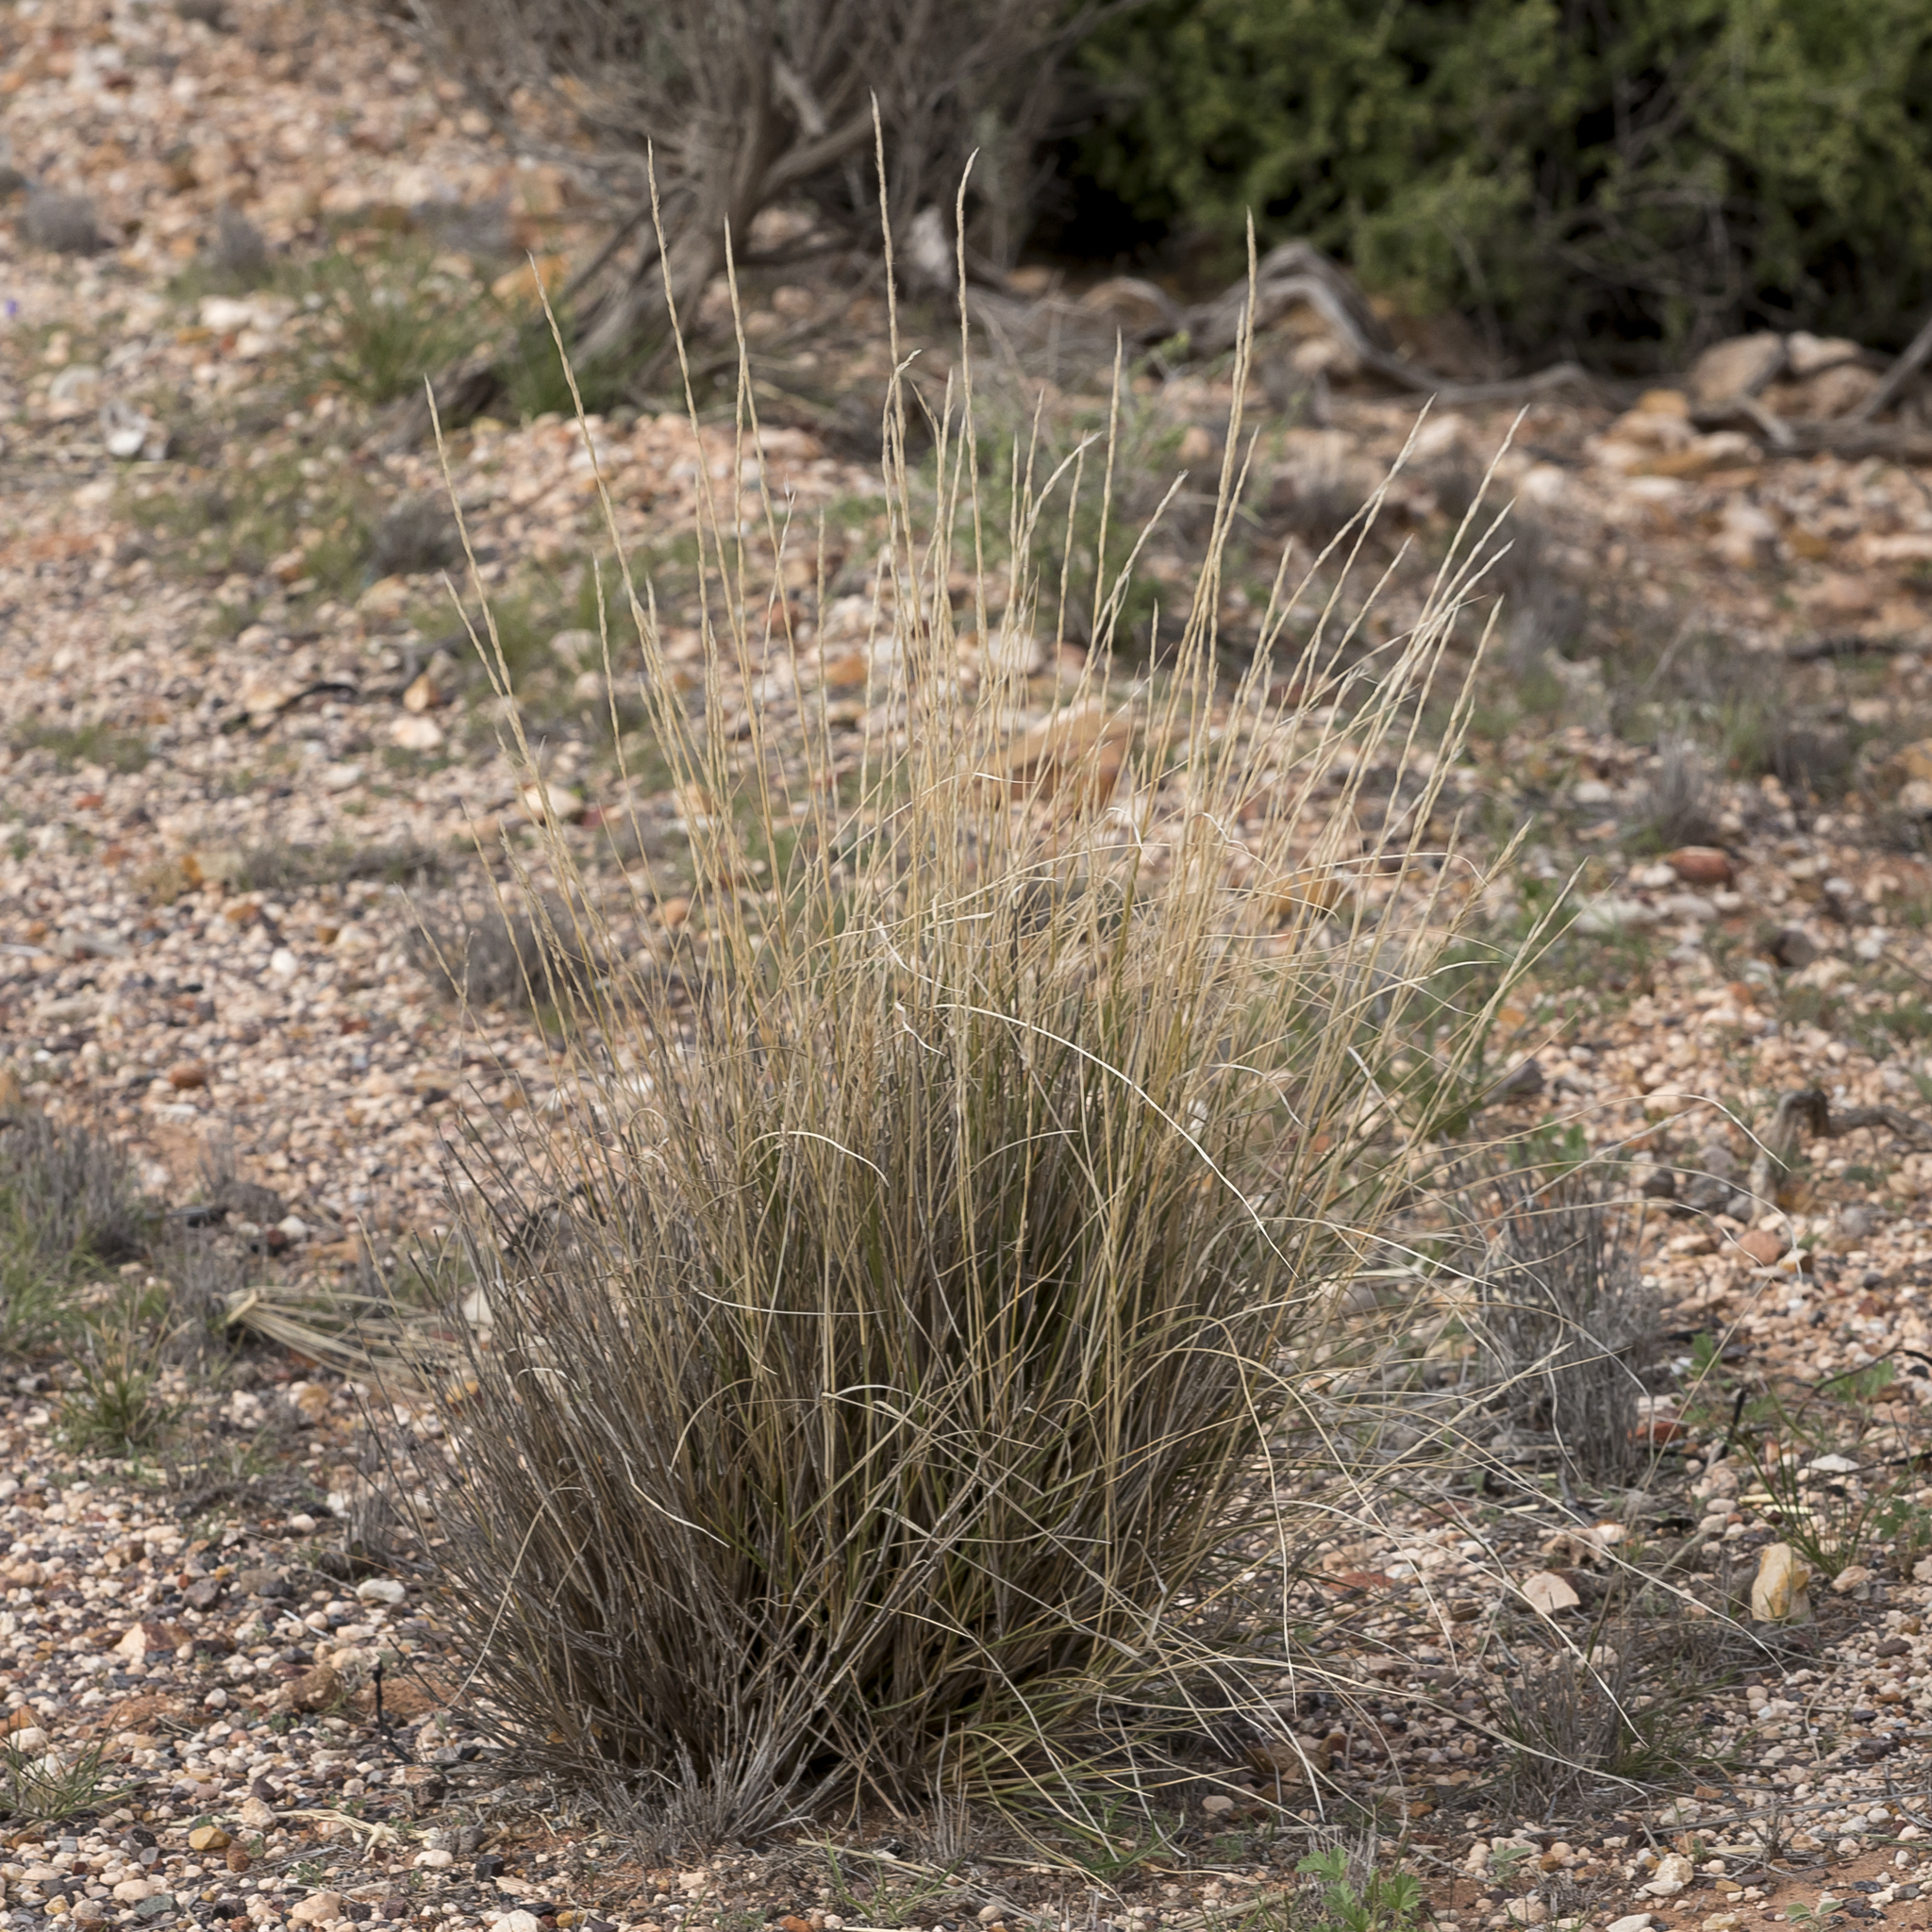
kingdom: Plantae
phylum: Tracheophyta
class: Liliopsida
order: Poales
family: Poaceae
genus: Aristida
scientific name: Aristida nitidula
